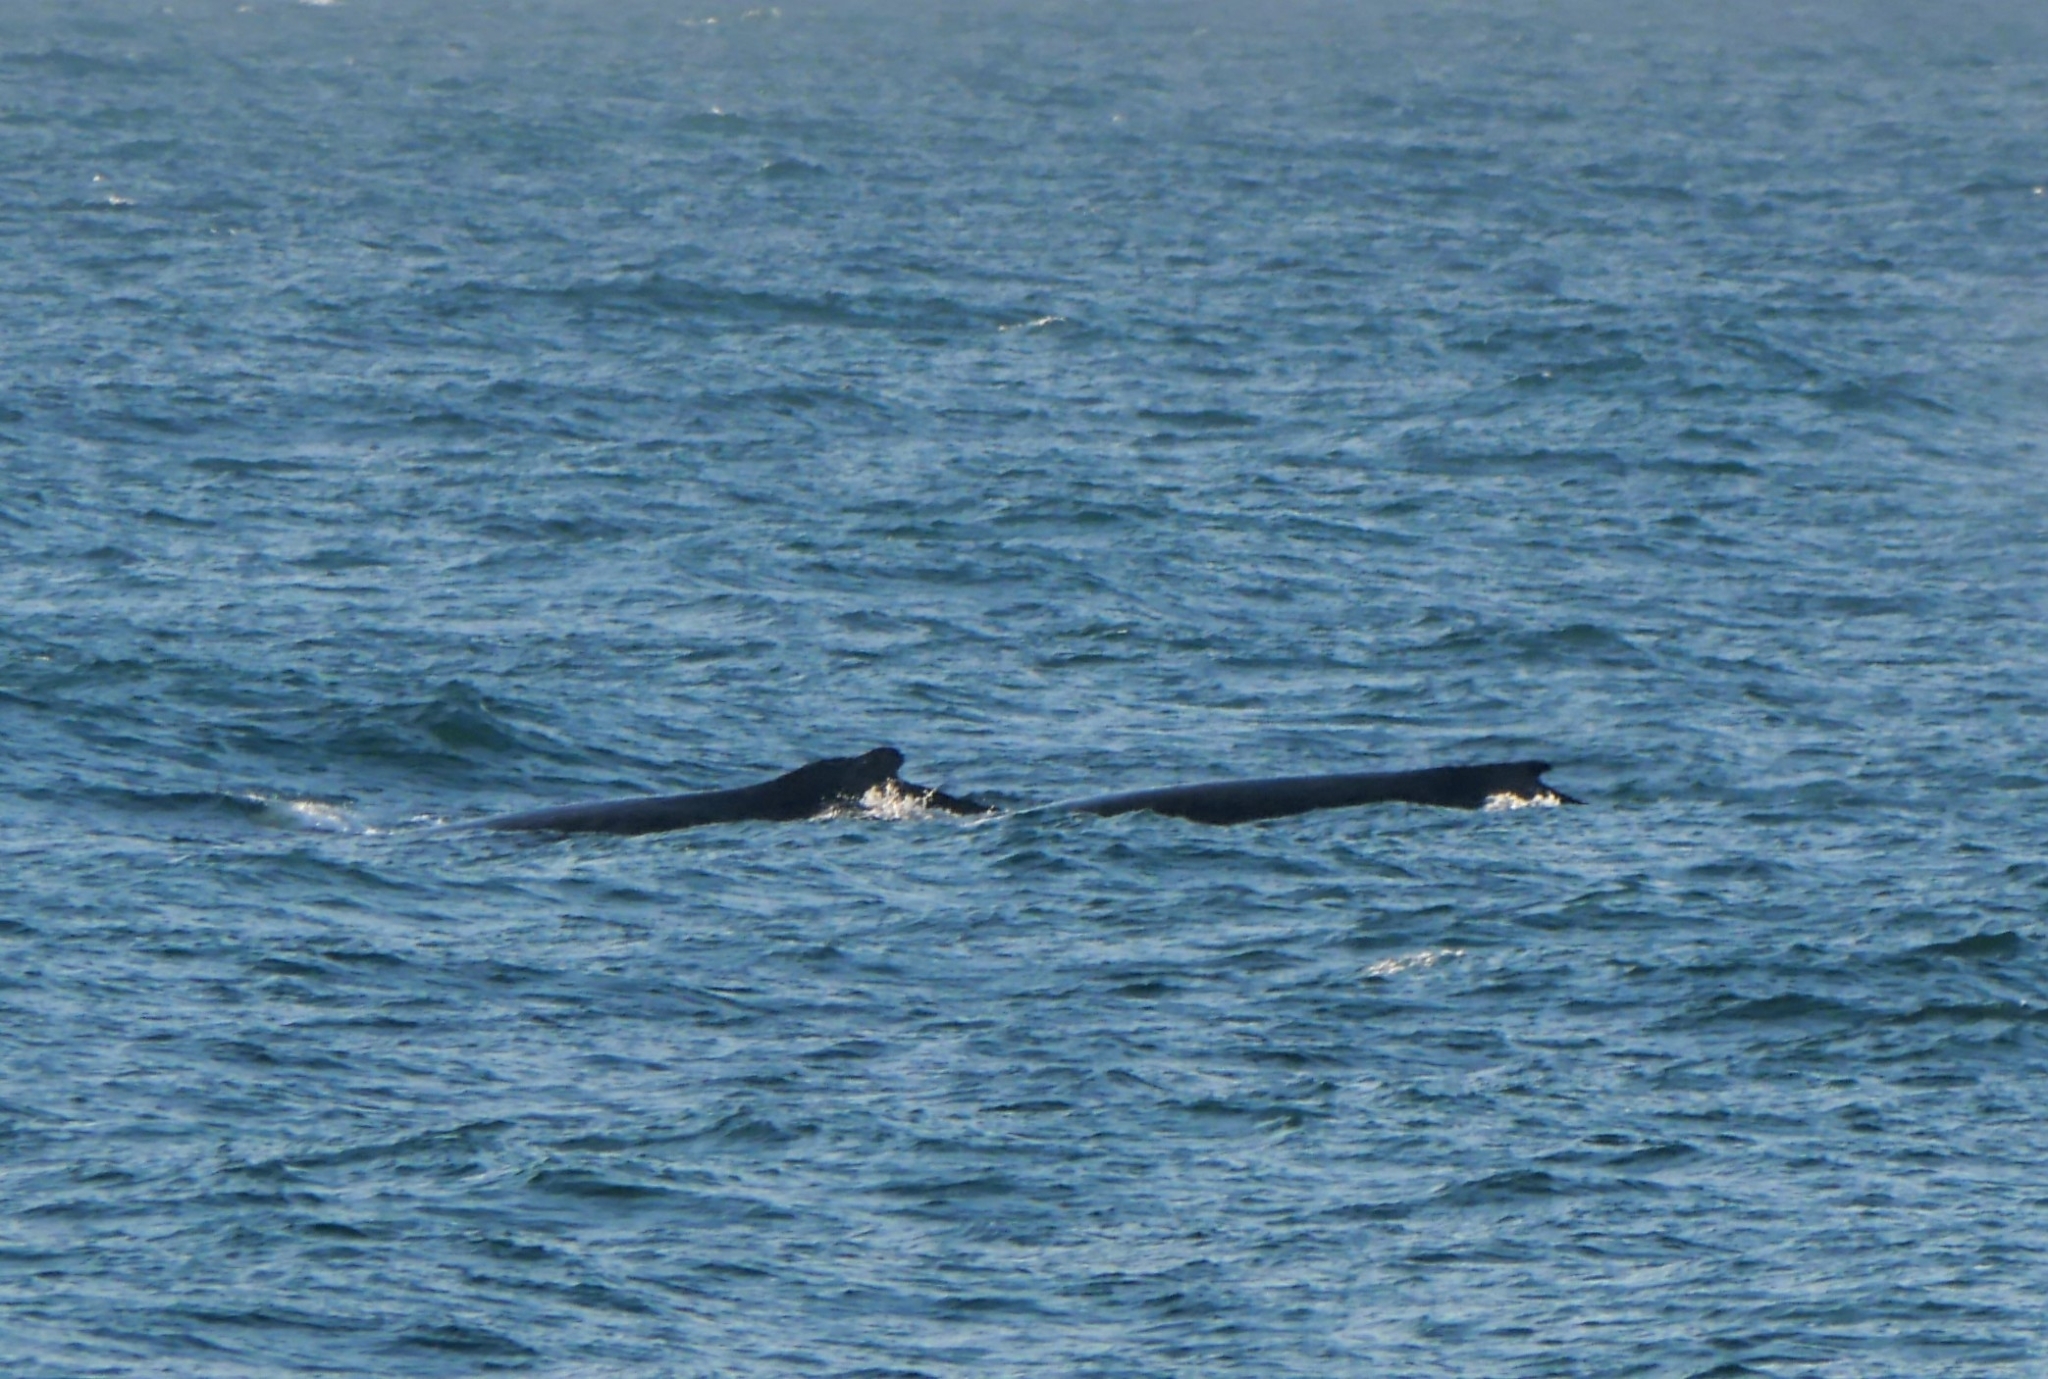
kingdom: Animalia
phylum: Chordata
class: Mammalia
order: Cetacea
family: Balaenopteridae
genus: Megaptera
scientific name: Megaptera novaeangliae
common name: Humpback whale
